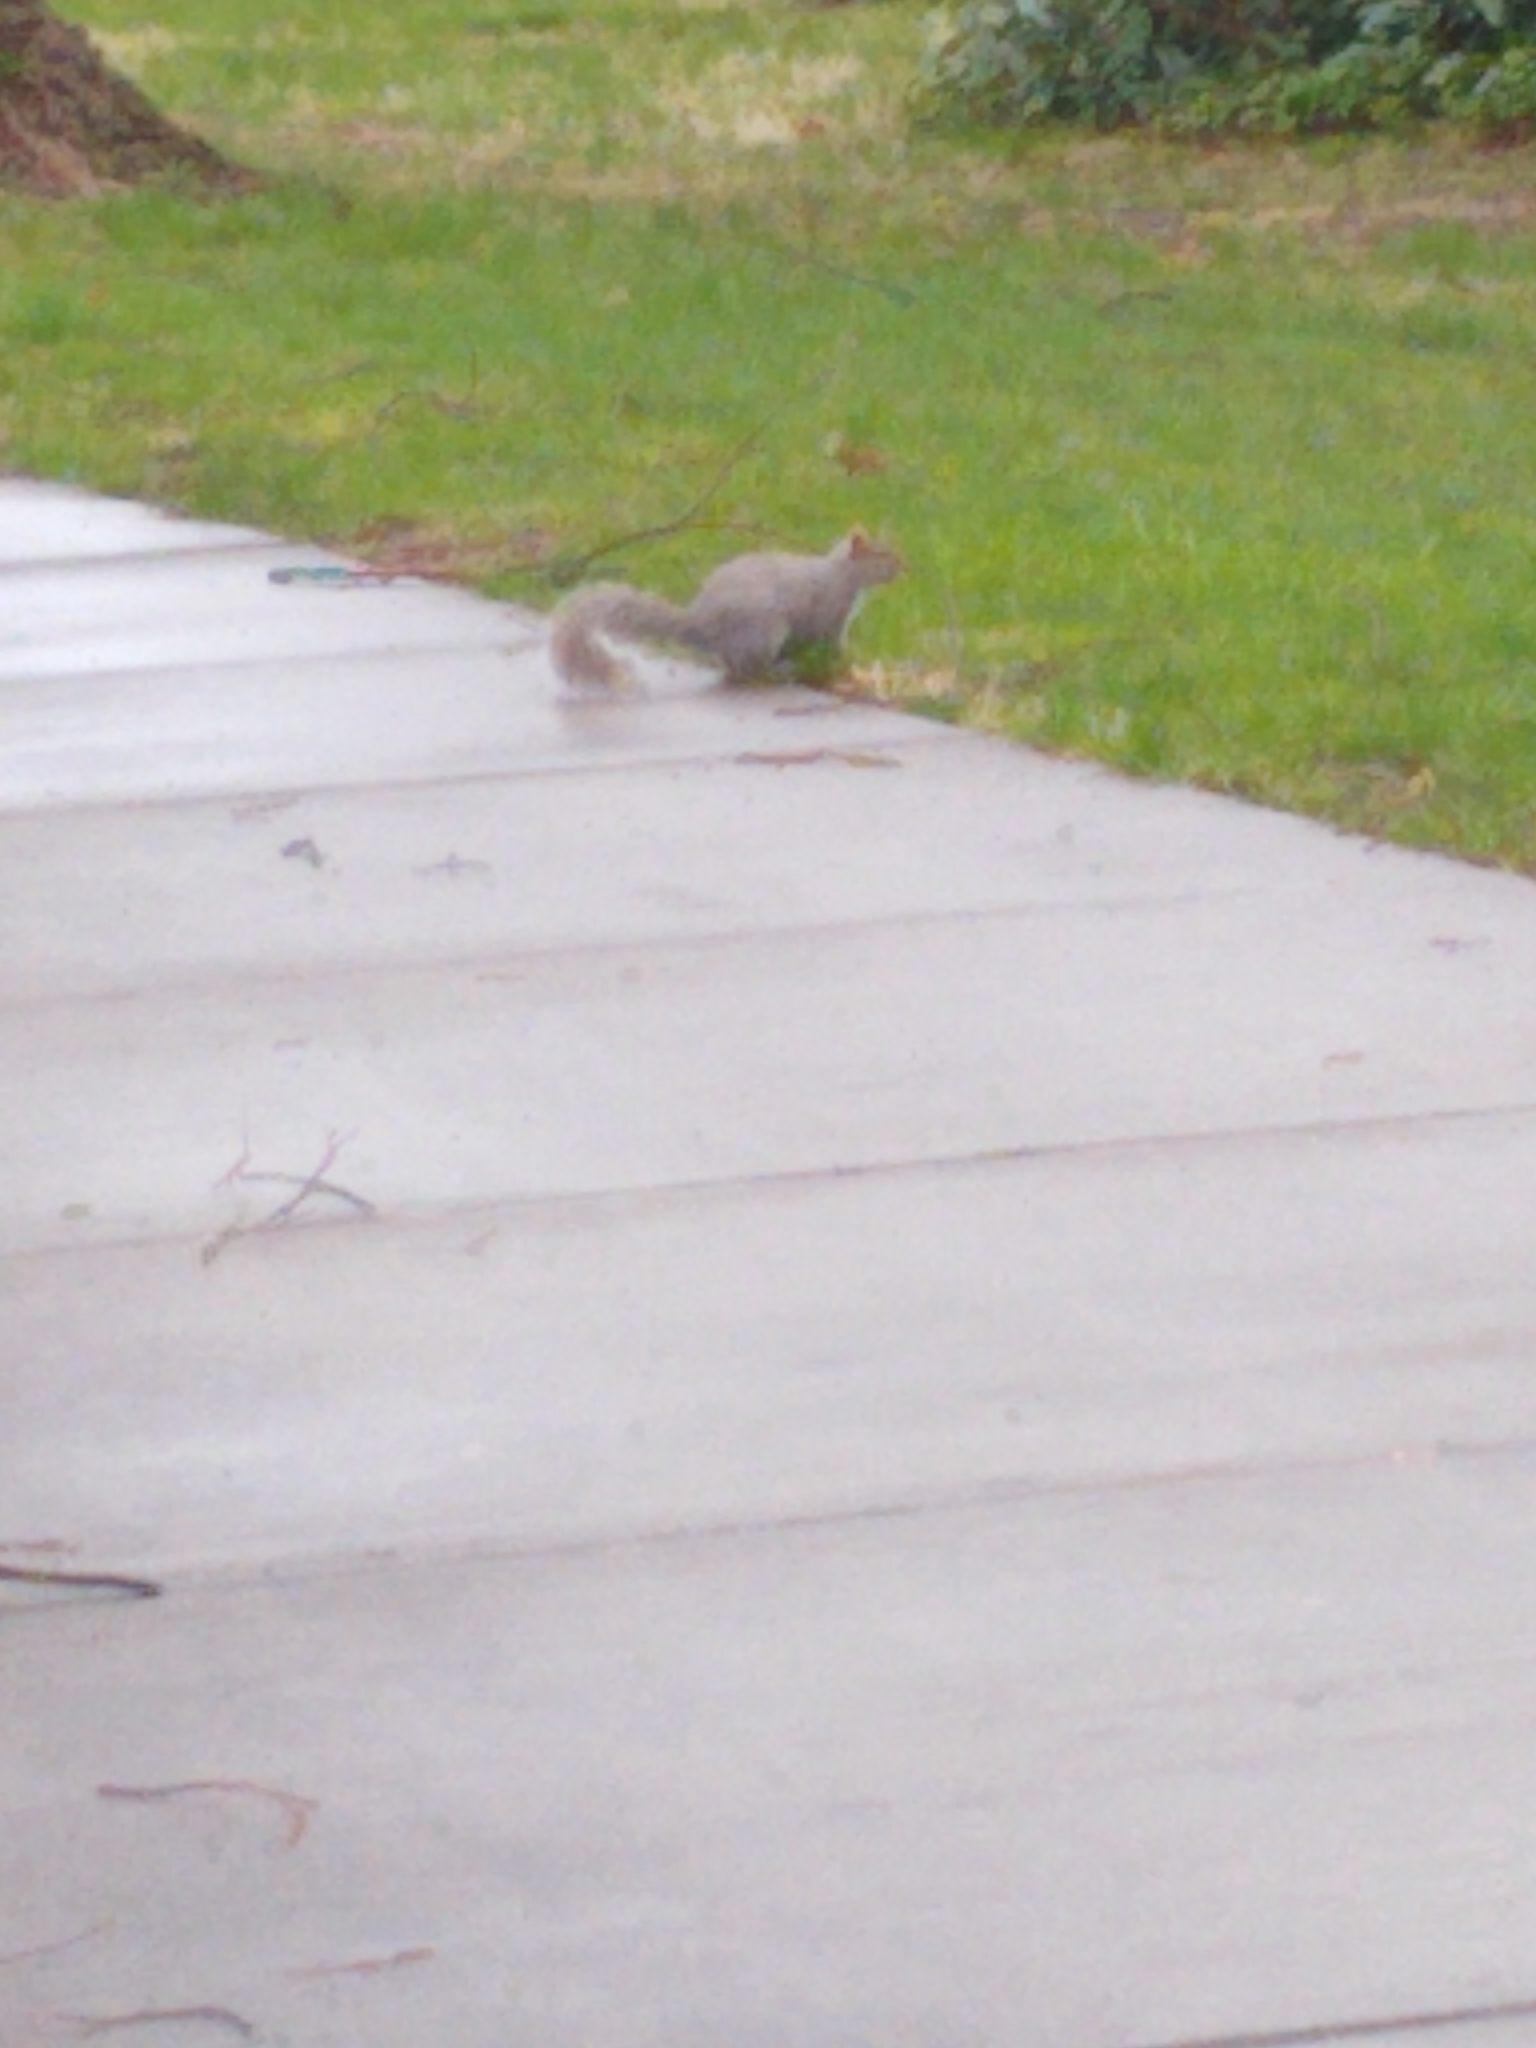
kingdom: Animalia
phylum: Chordata
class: Mammalia
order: Rodentia
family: Sciuridae
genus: Sciurus
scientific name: Sciurus carolinensis
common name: Eastern gray squirrel
